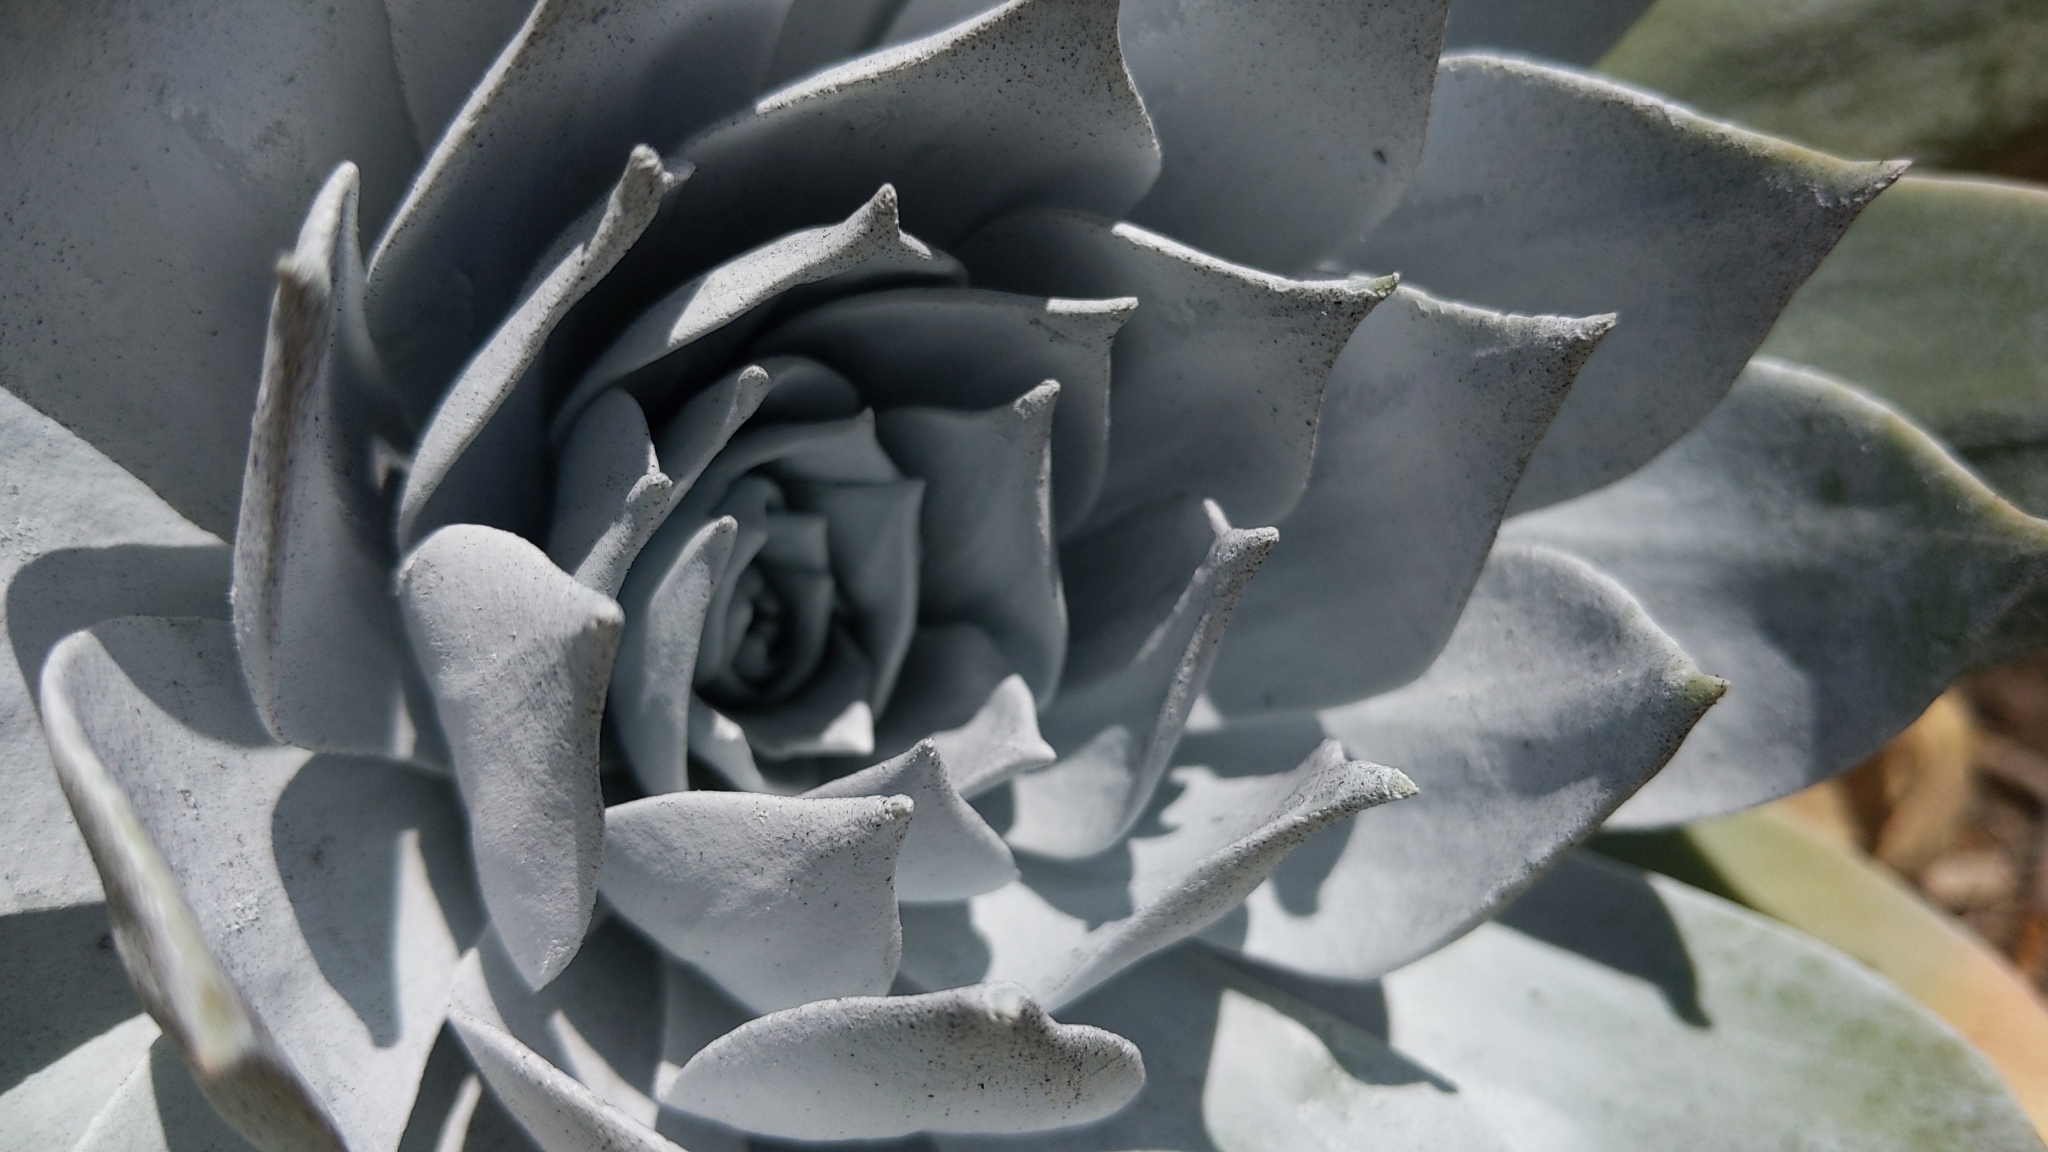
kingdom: Plantae
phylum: Tracheophyta
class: Magnoliopsida
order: Saxifragales
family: Crassulaceae
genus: Dudleya
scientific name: Dudleya pulverulenta
